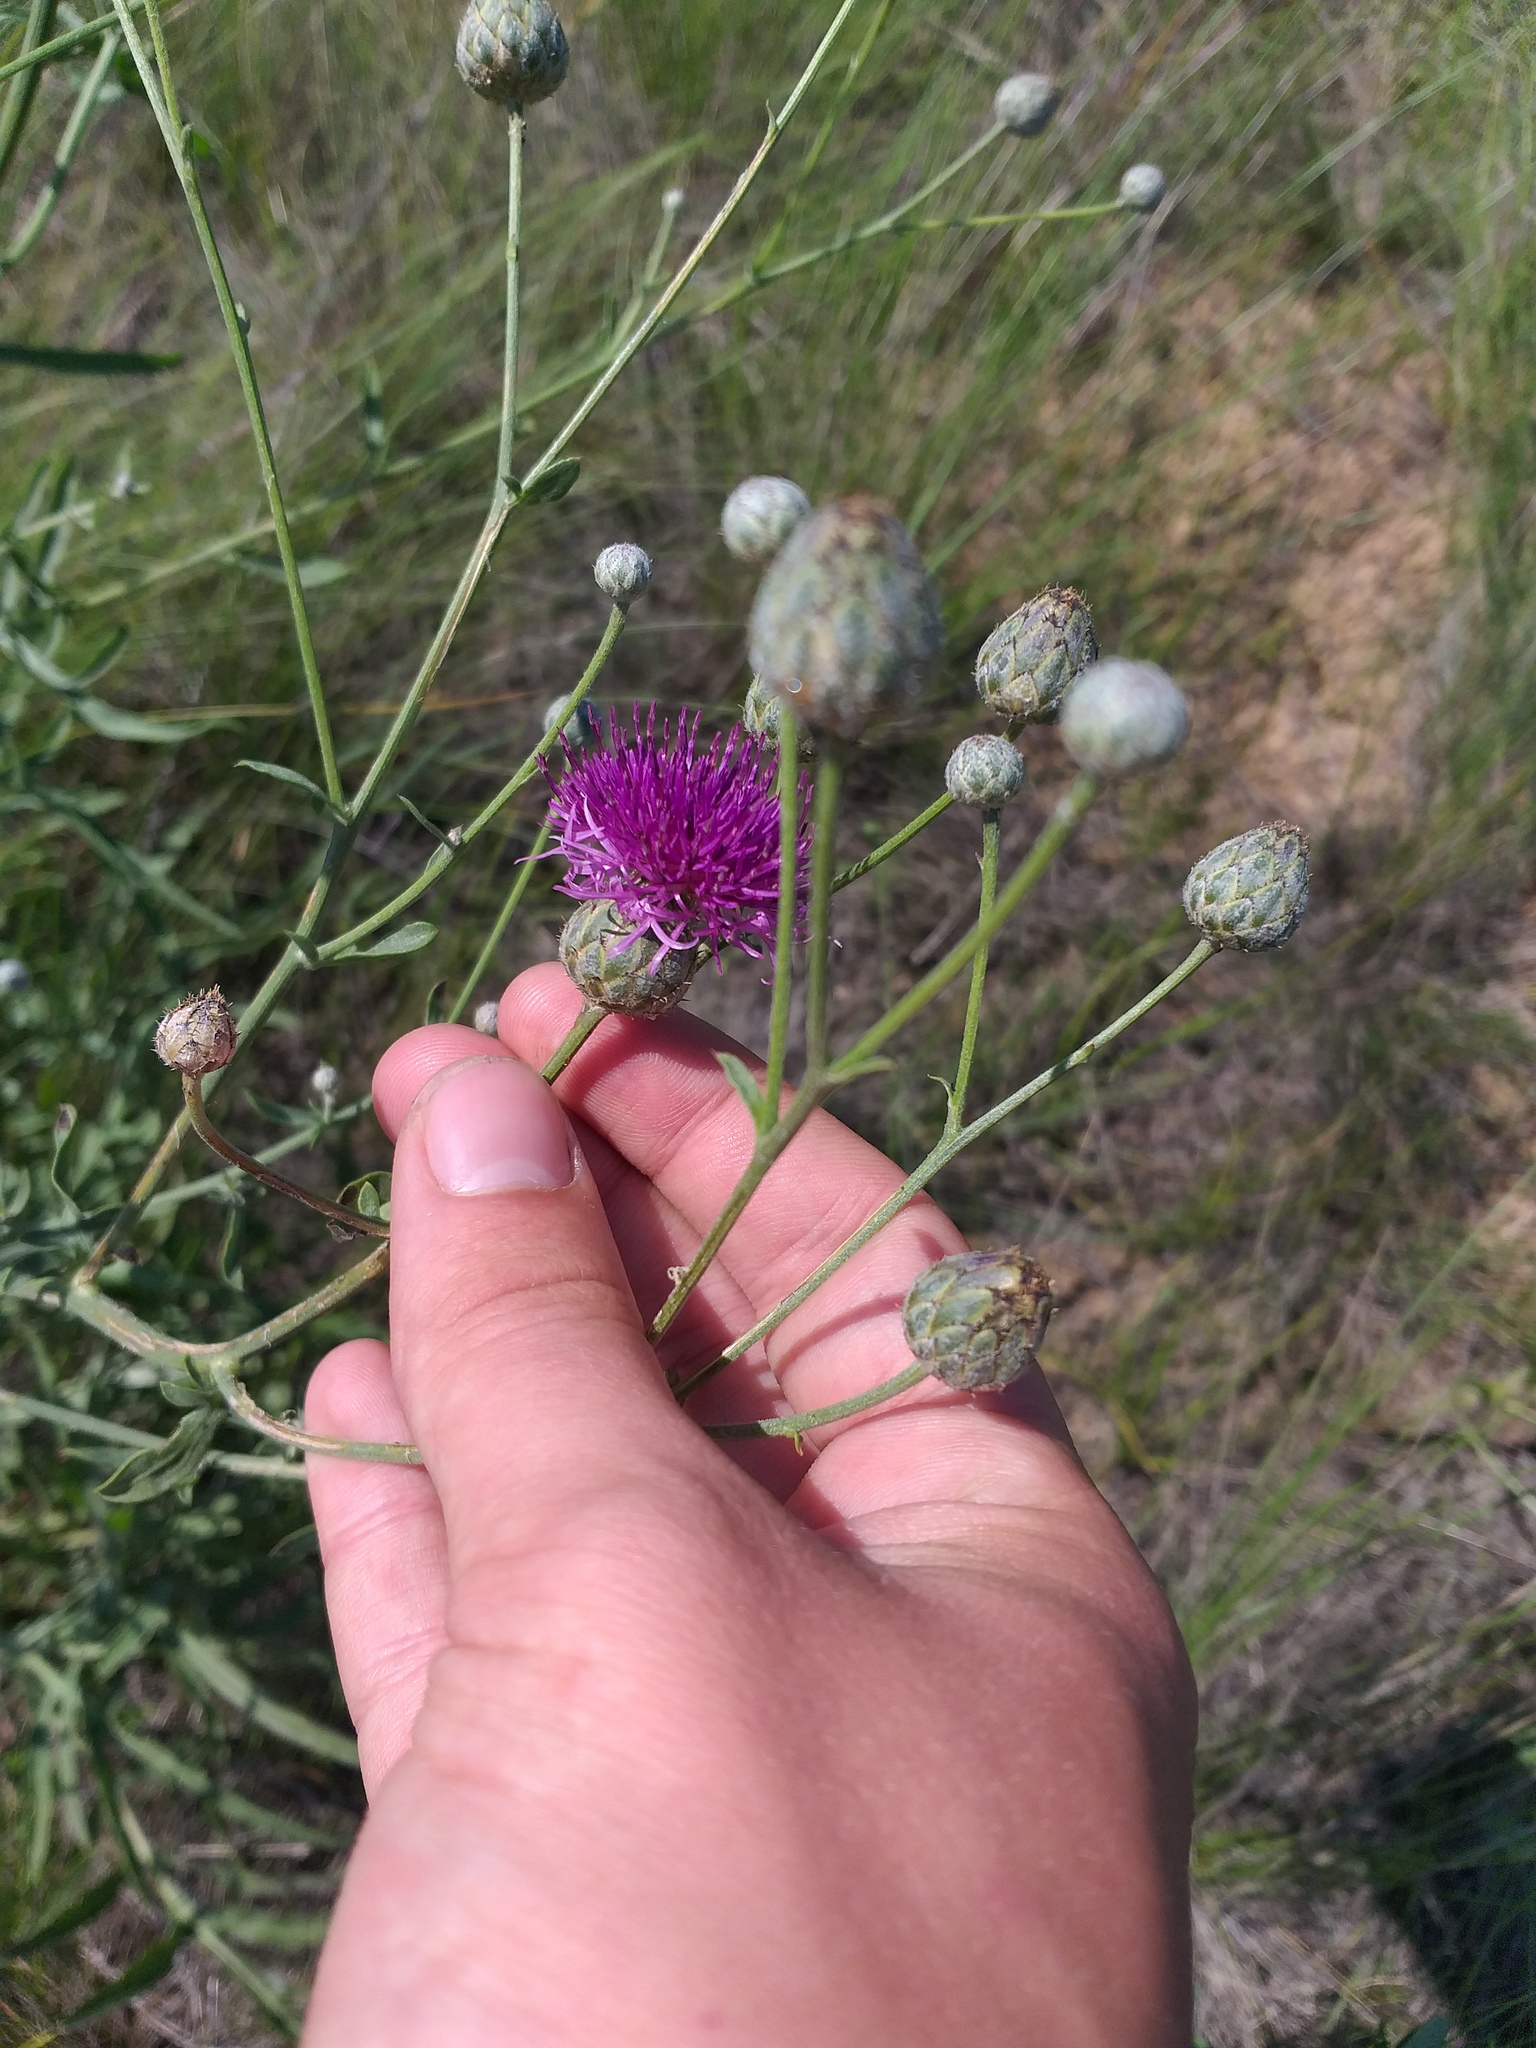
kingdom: Plantae
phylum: Tracheophyta
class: Magnoliopsida
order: Asterales
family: Asteraceae
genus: Centaurea
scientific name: Centaurea adpressa
